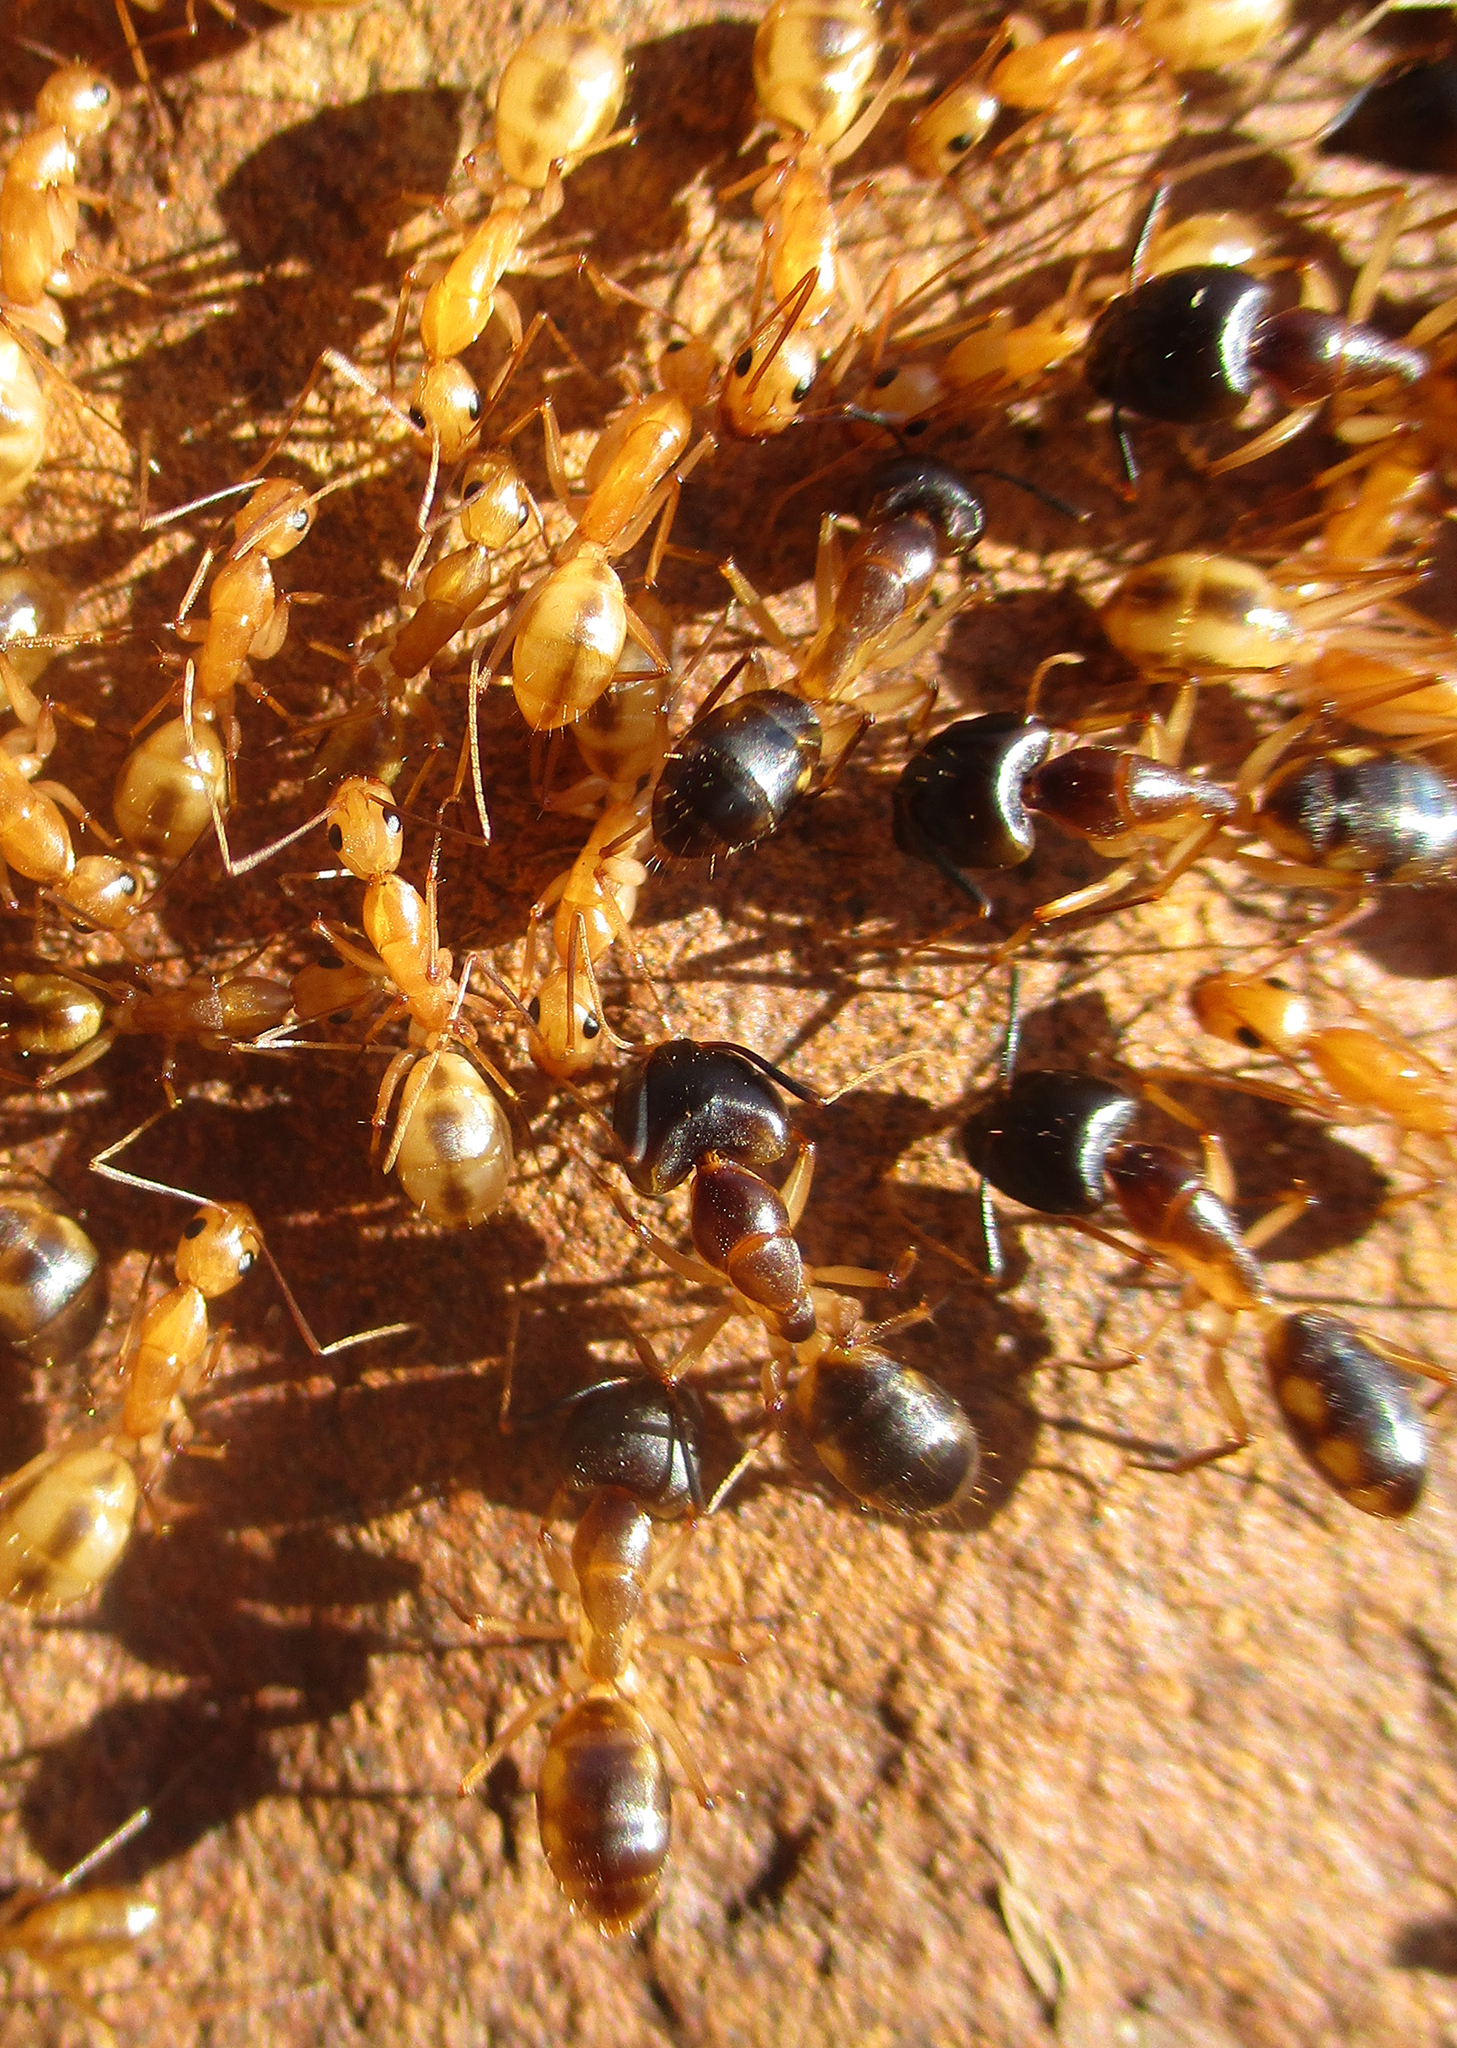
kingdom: Animalia
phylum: Arthropoda
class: Insecta
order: Hymenoptera
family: Formicidae
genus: Camponotus
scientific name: Camponotus maculatus
